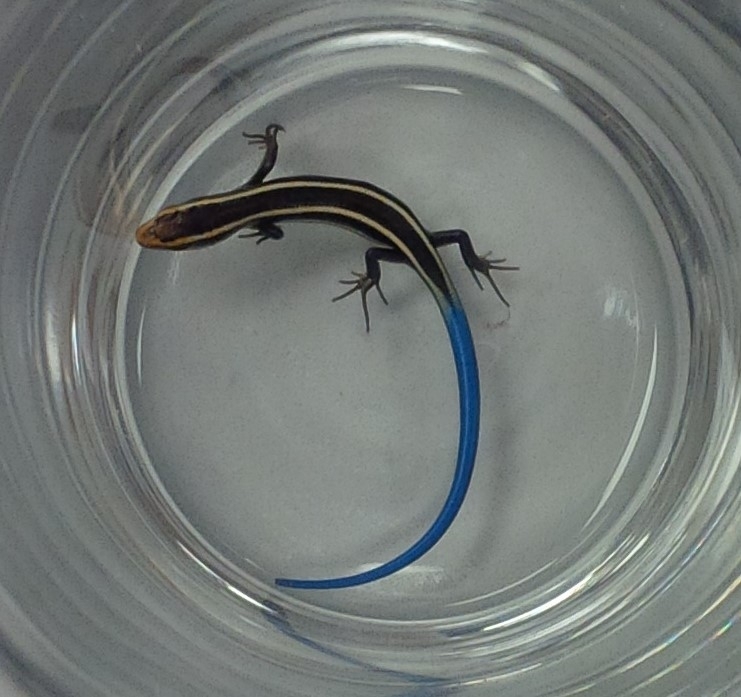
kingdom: Animalia
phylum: Chordata
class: Squamata
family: Scincidae
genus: Plestiodon
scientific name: Plestiodon skiltonianus
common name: Coronado island skink [interparietalis]
